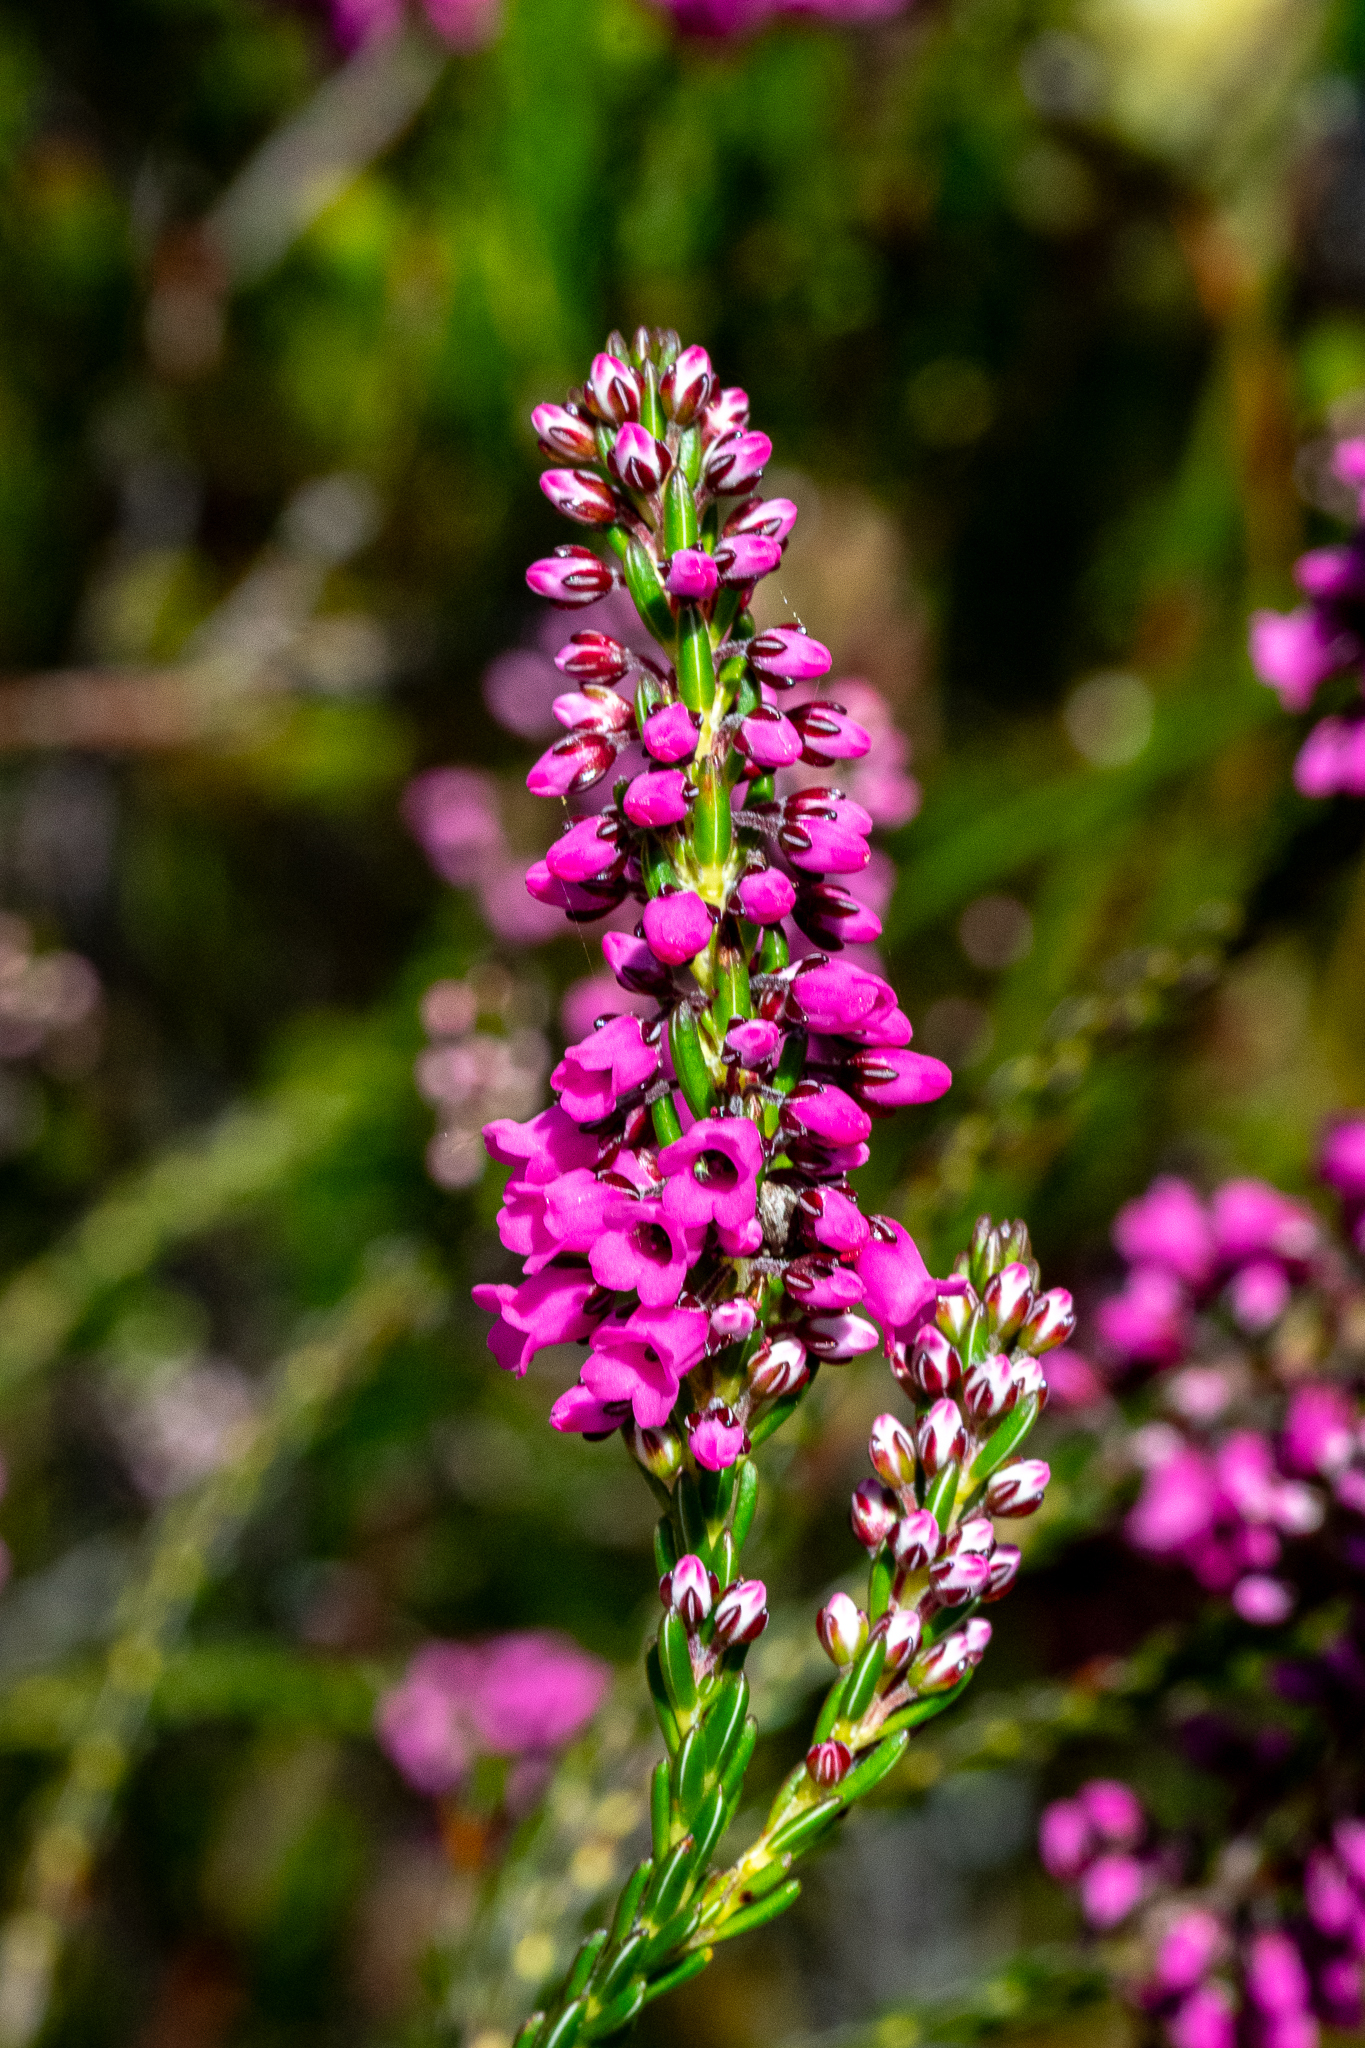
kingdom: Plantae
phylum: Tracheophyta
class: Magnoliopsida
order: Ericales
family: Ericaceae
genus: Erica
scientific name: Erica pulchella
